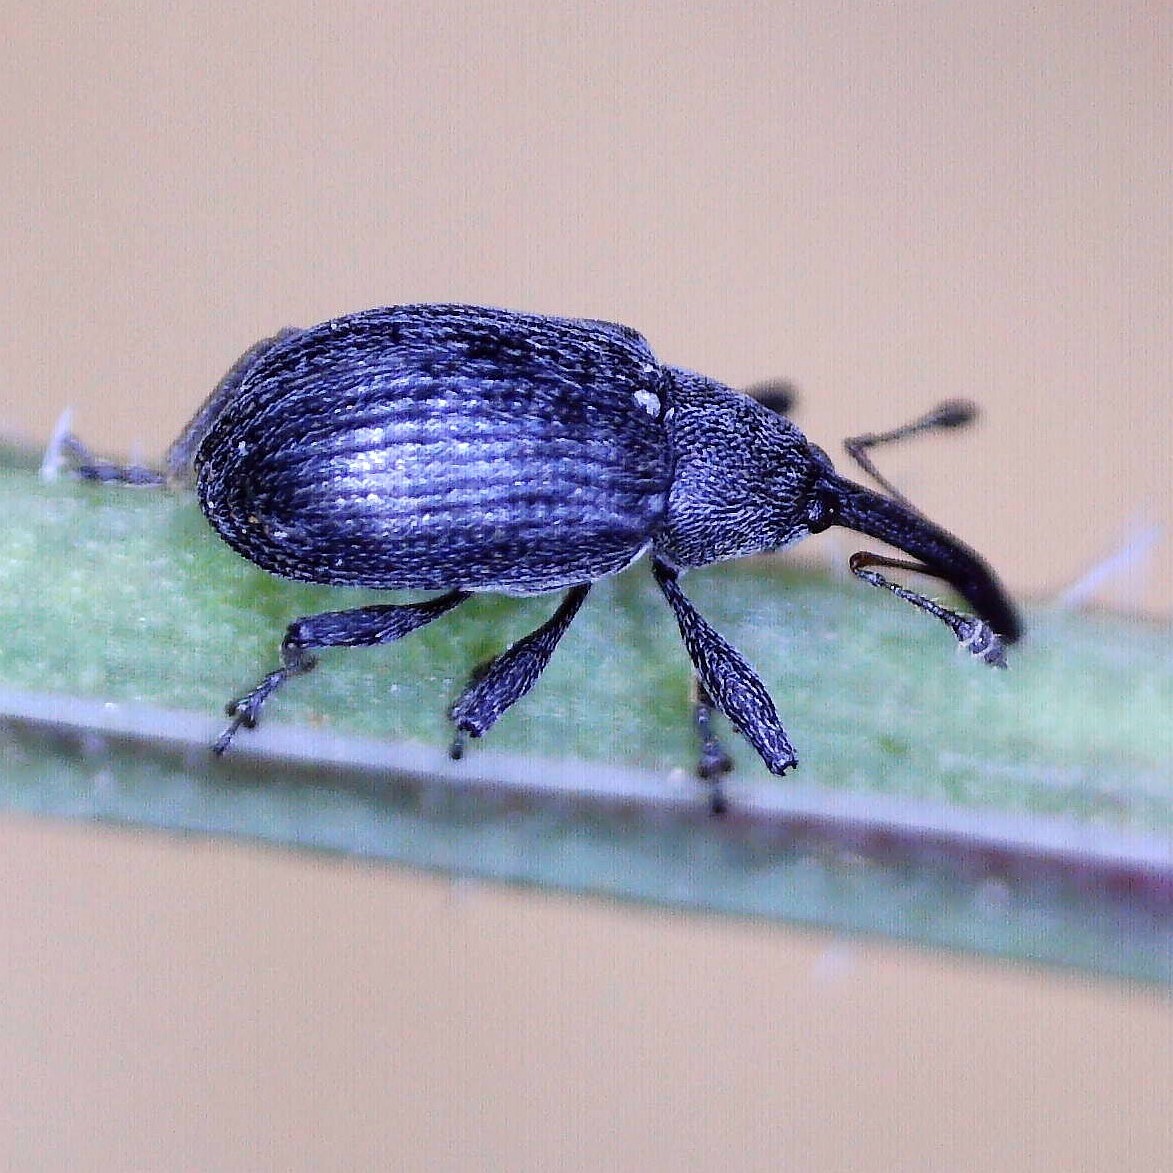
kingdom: Animalia
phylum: Arthropoda
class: Insecta
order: Coleoptera
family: Curculionidae
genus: Anthonomus
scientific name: Anthonomus rubi
